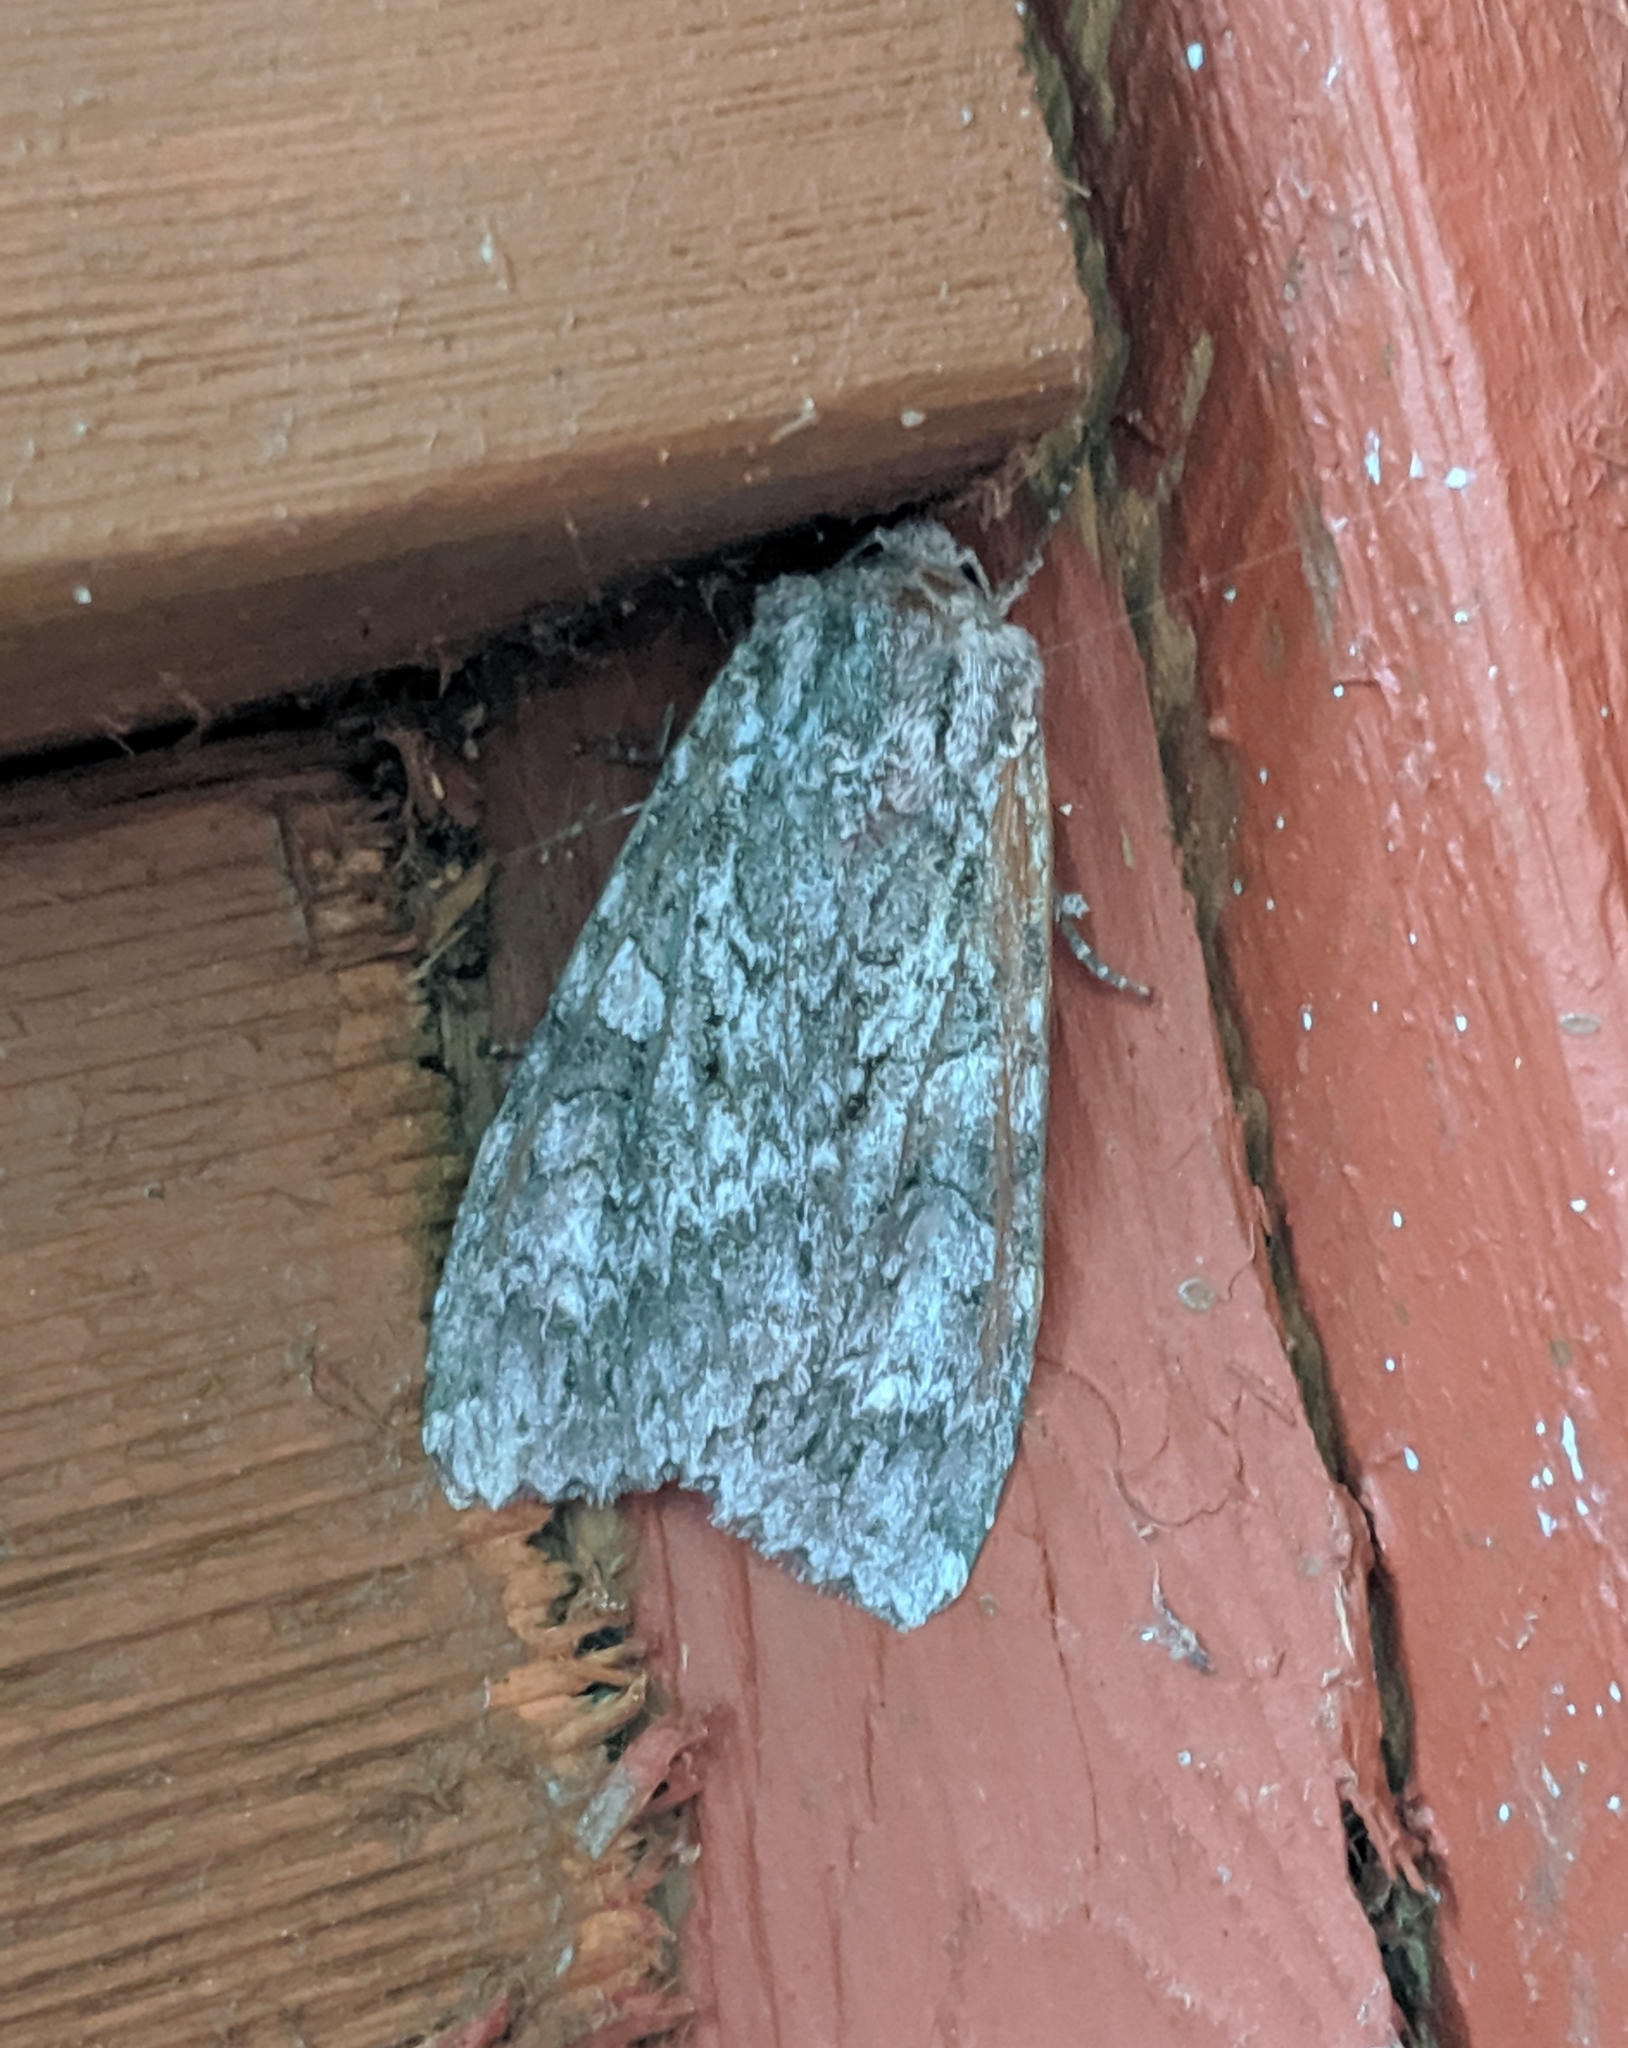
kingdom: Animalia
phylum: Arthropoda
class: Insecta
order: Lepidoptera
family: Noctuidae
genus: Eurois
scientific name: Eurois occulta
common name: Great brocade
